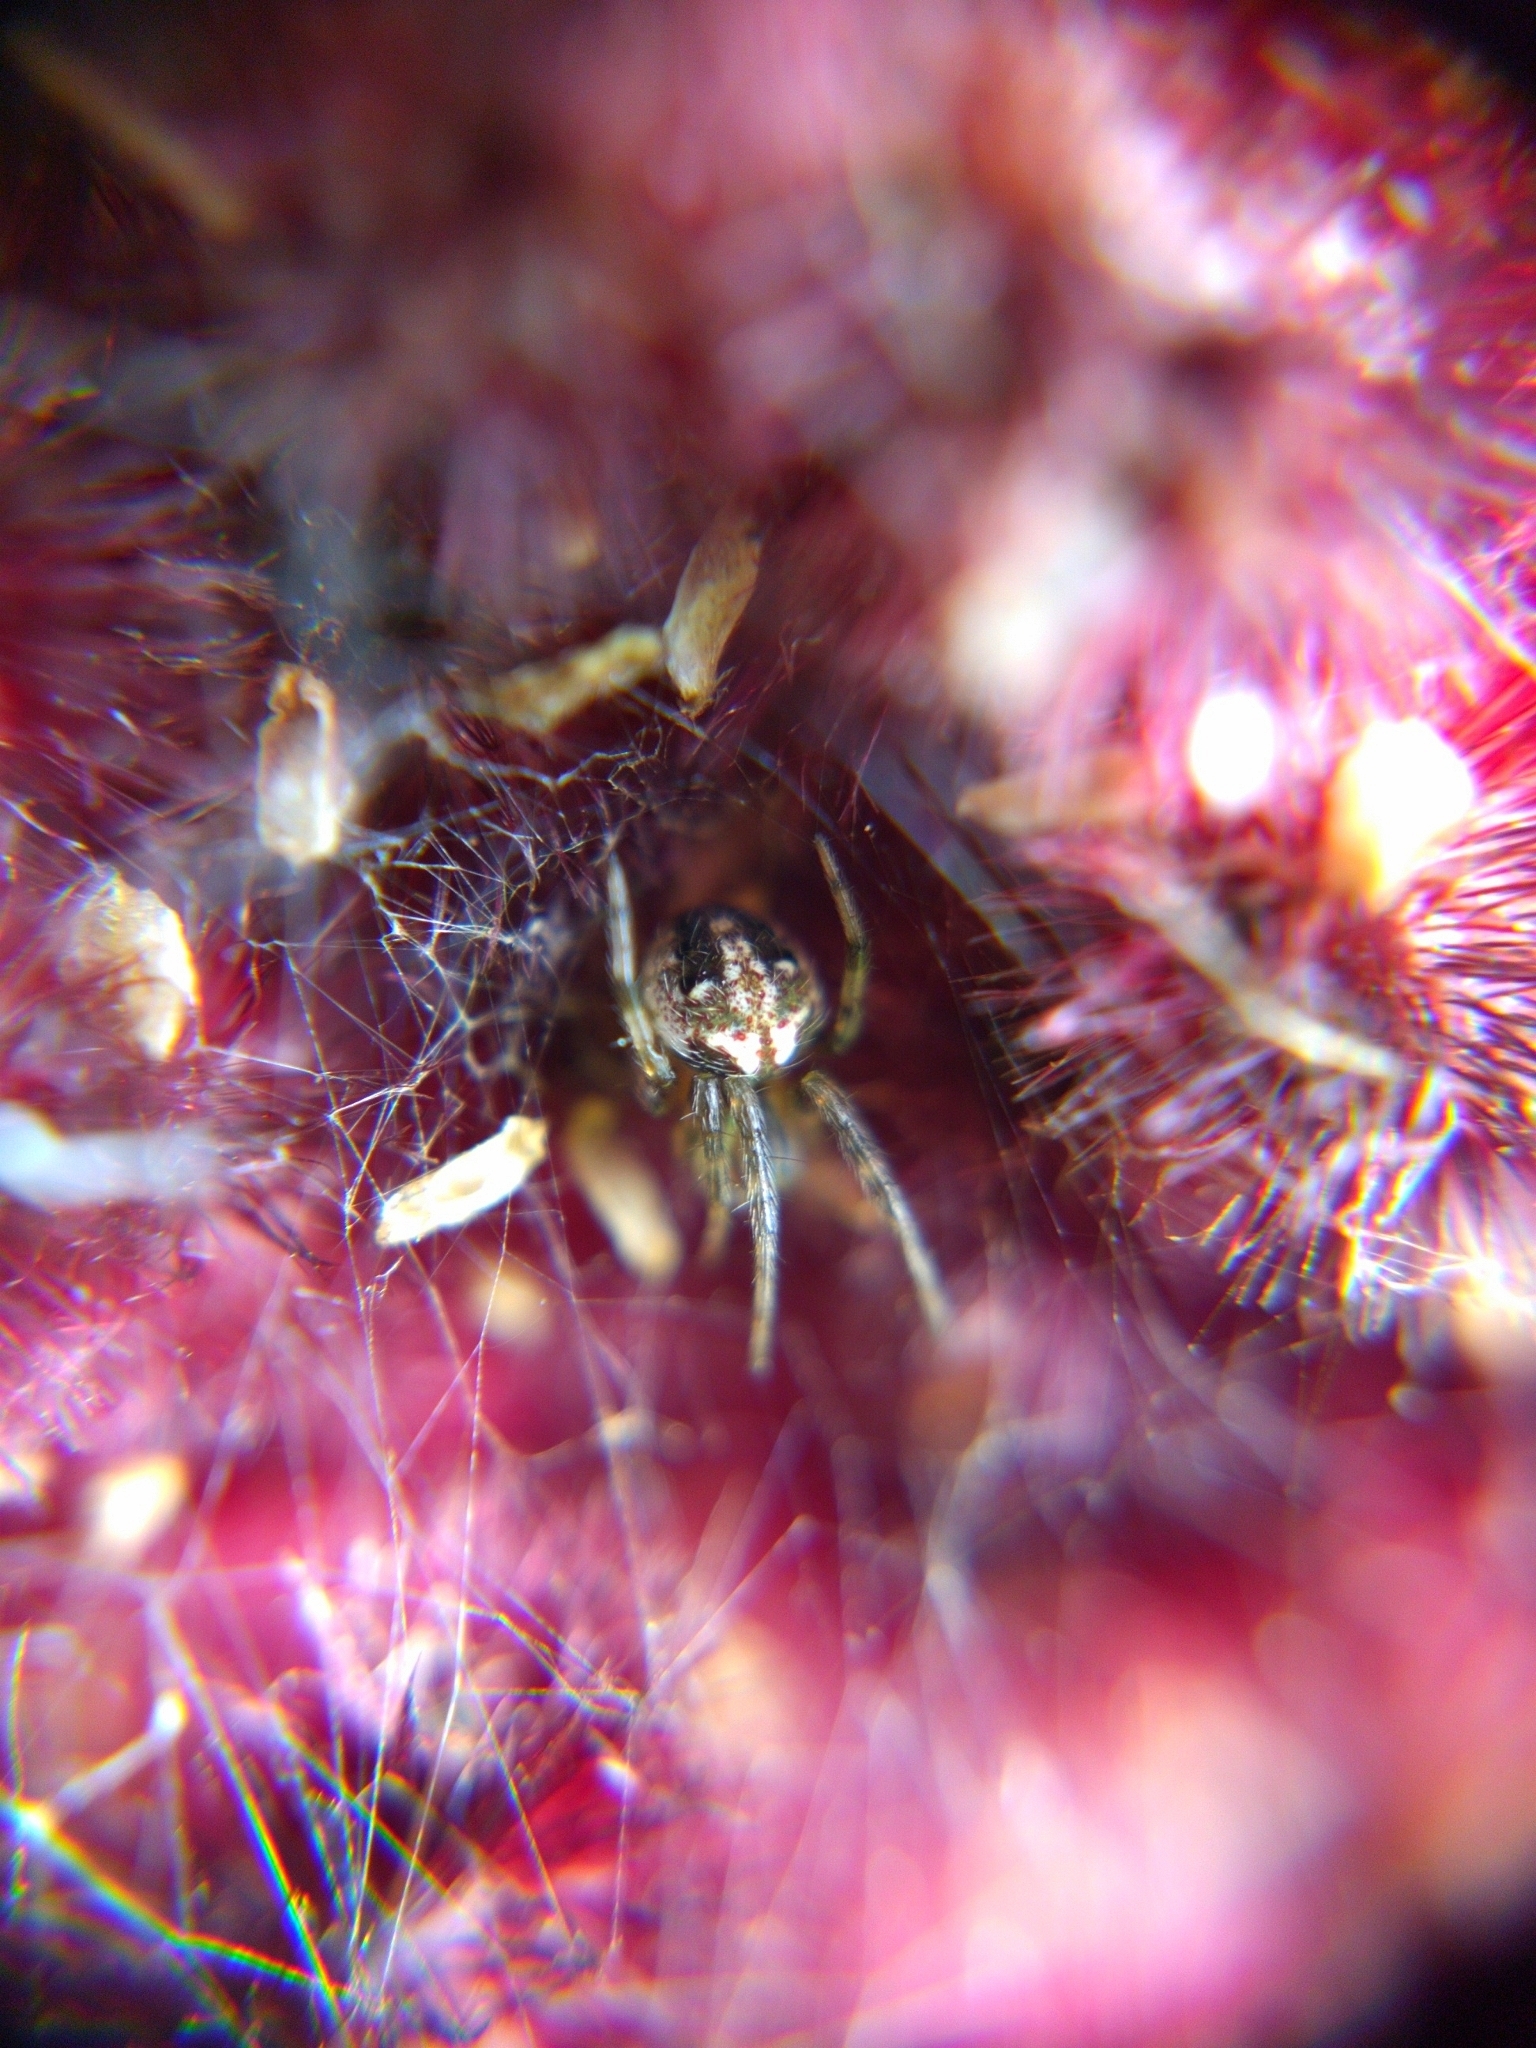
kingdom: Animalia
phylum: Arthropoda
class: Arachnida
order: Araneae
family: Araneidae
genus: Neoscona
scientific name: Neoscona arabesca
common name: Orb weavers
